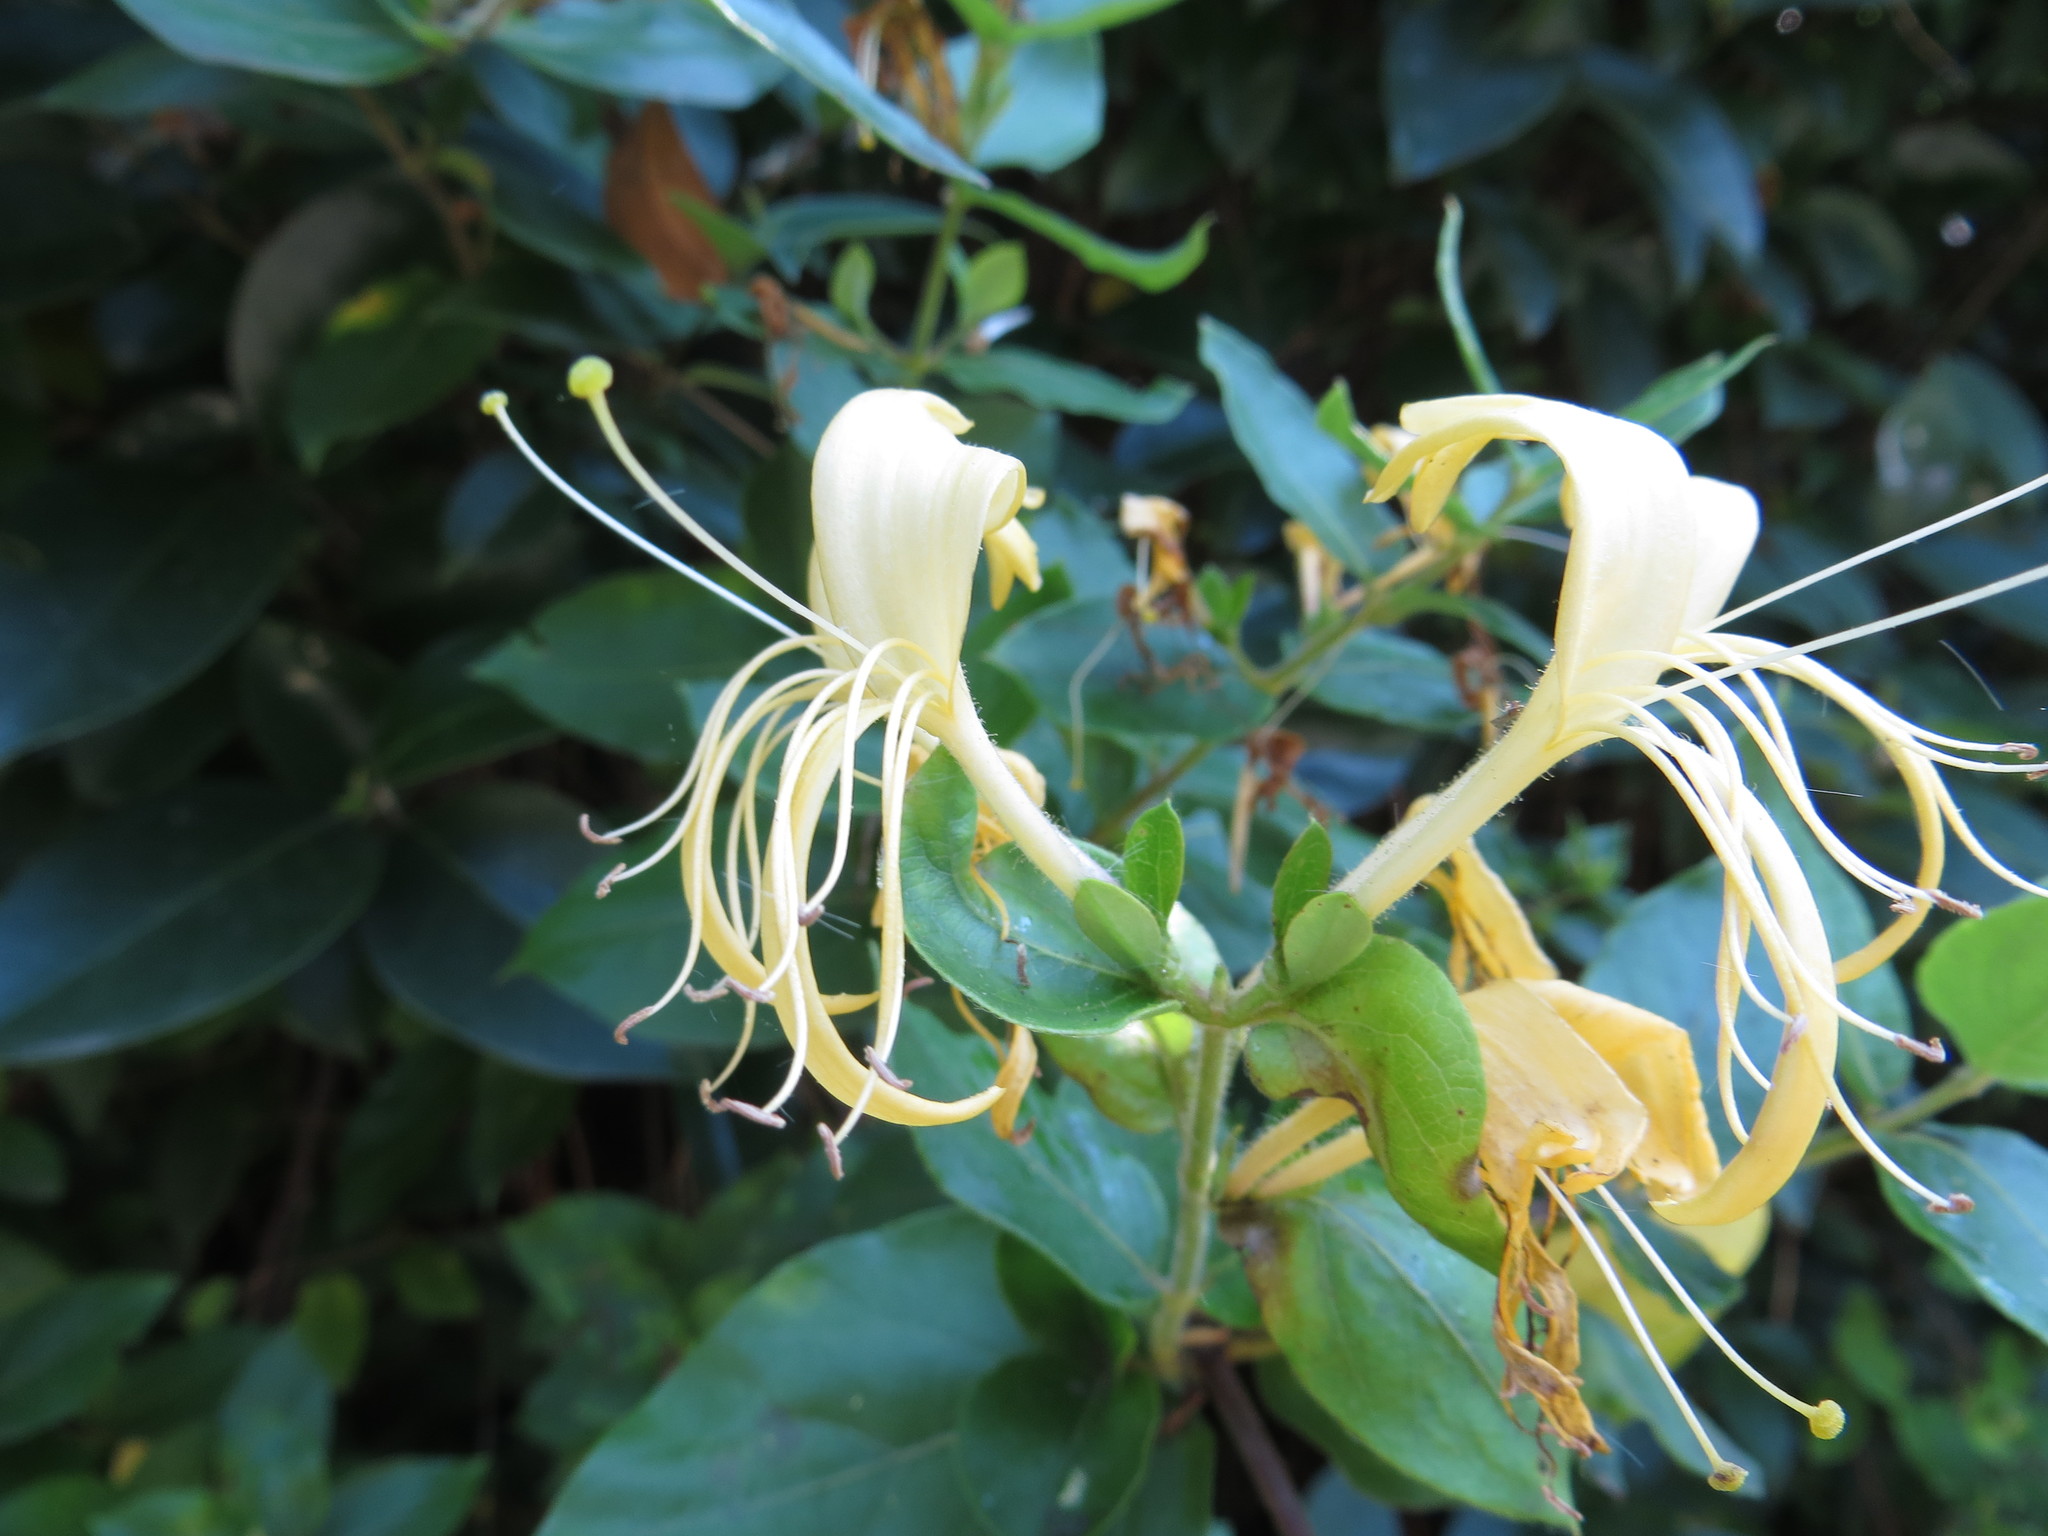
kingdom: Plantae
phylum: Tracheophyta
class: Magnoliopsida
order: Dipsacales
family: Caprifoliaceae
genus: Lonicera
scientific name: Lonicera japonica
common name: Japanese honeysuckle
